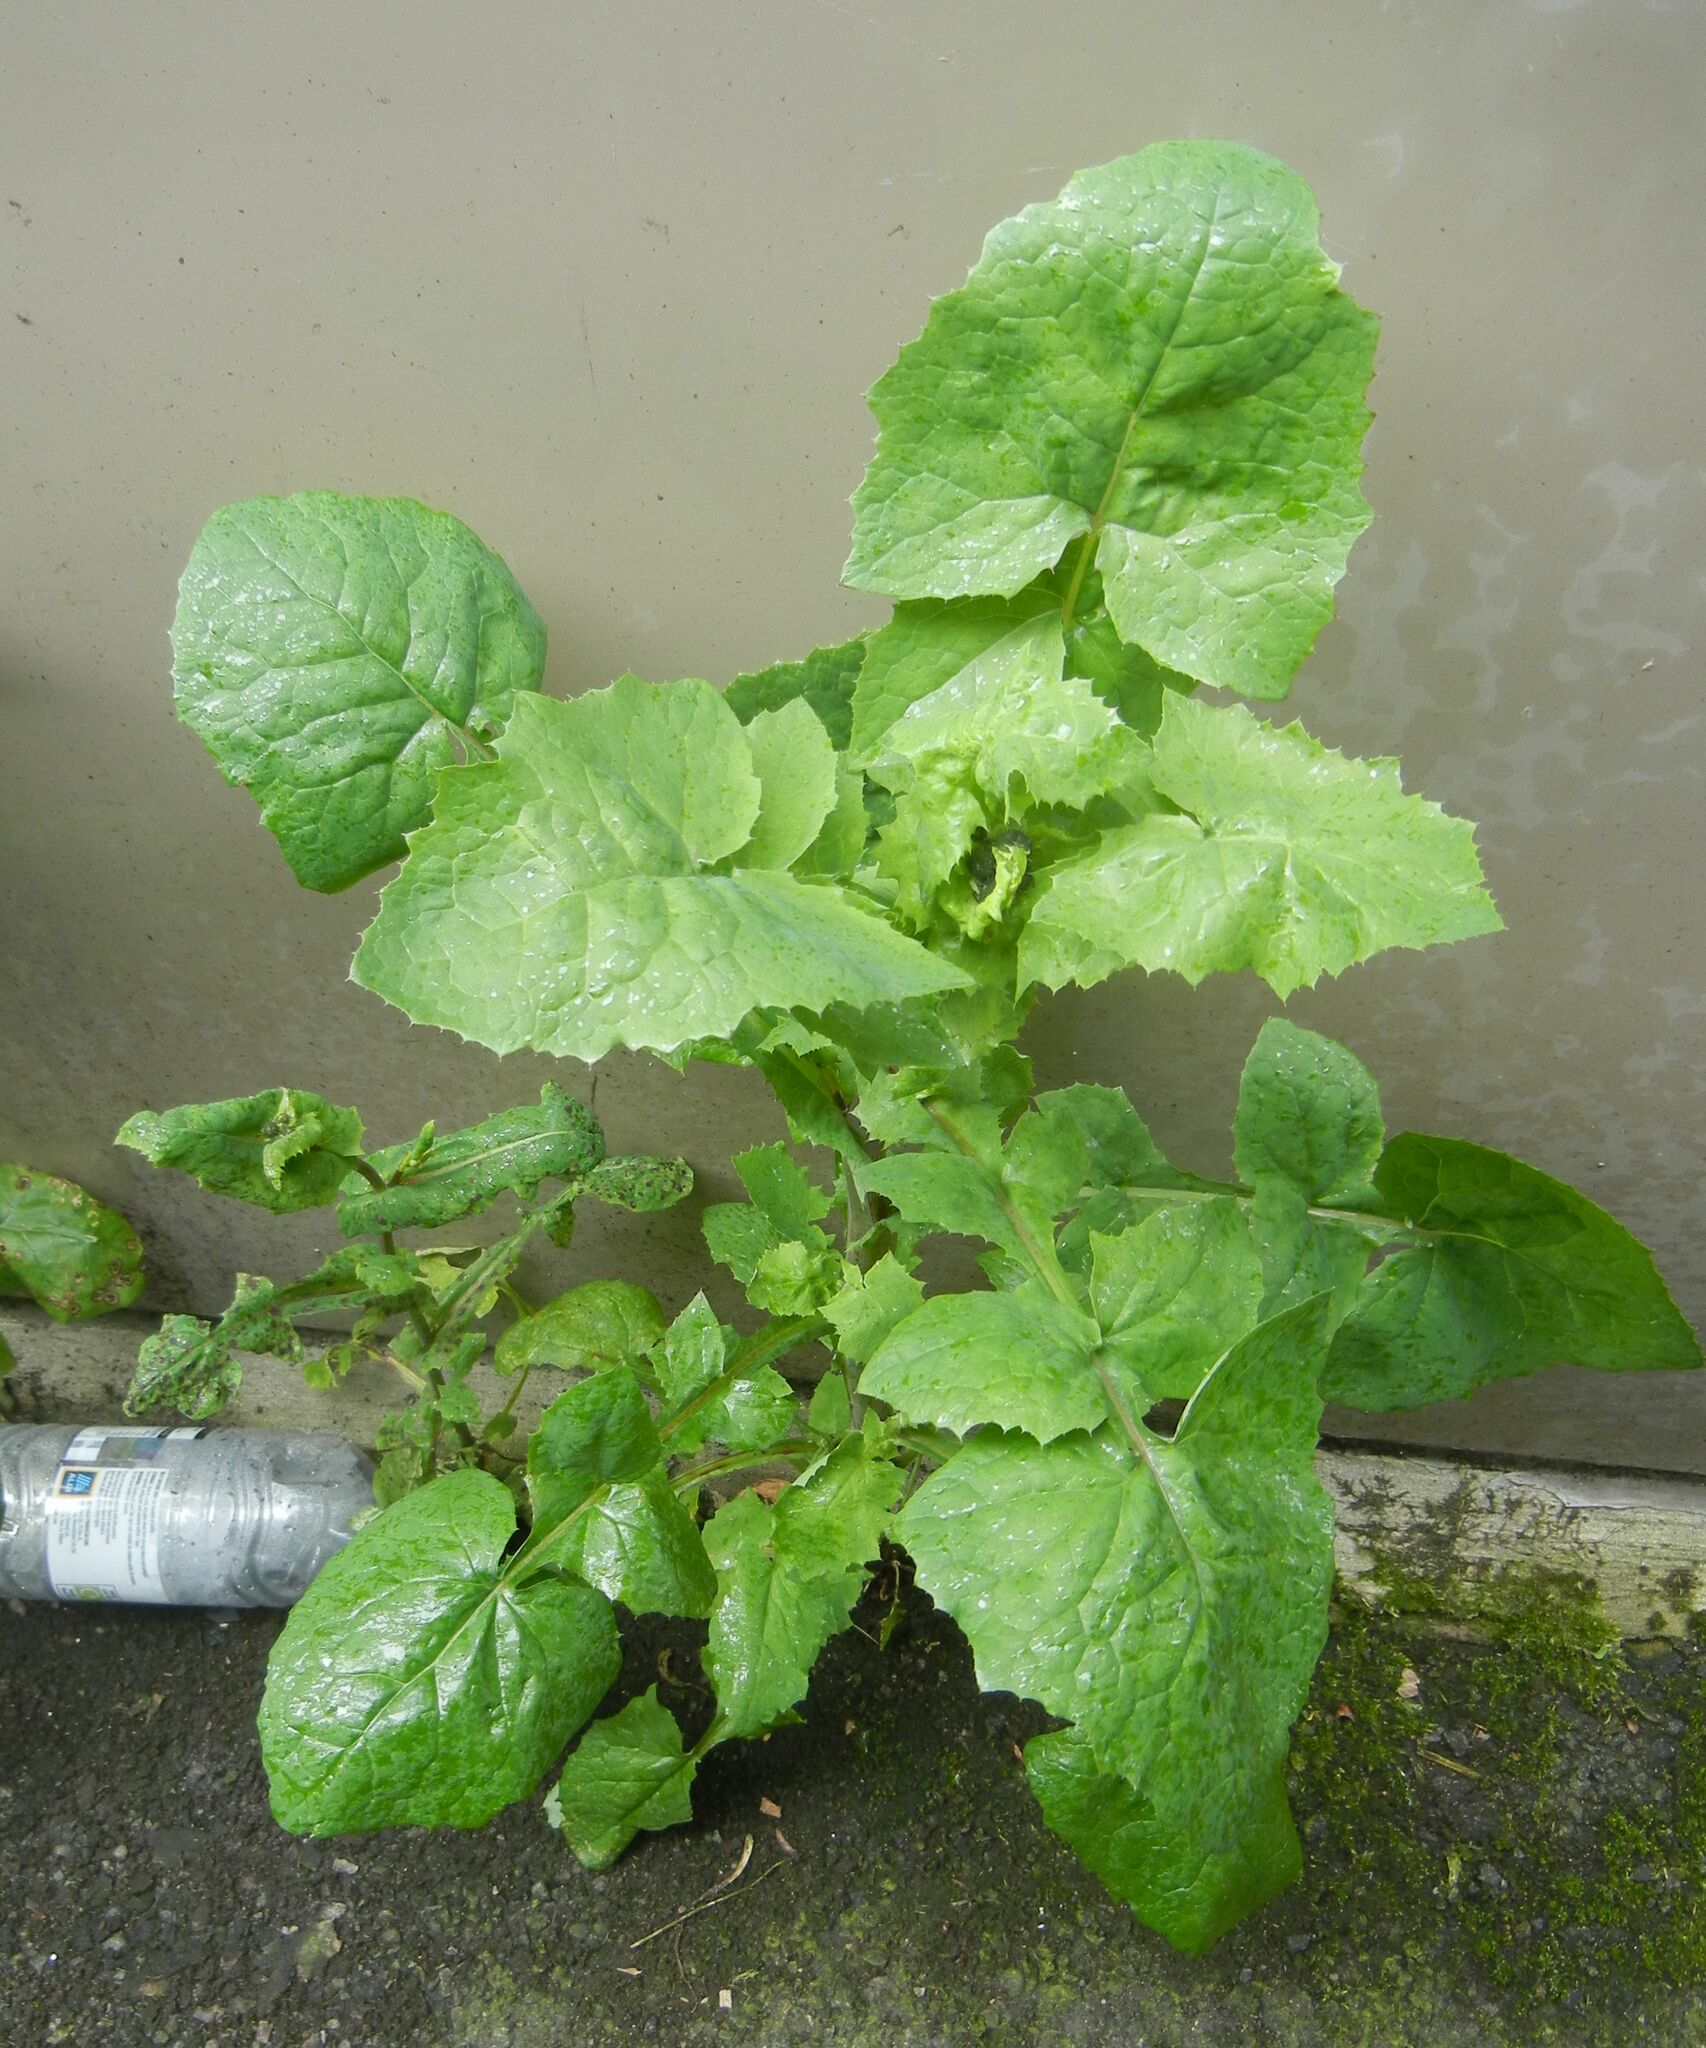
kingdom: Plantae
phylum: Tracheophyta
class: Magnoliopsida
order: Asterales
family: Asteraceae
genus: Sonchus
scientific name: Sonchus oleraceus
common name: Common sowthistle
